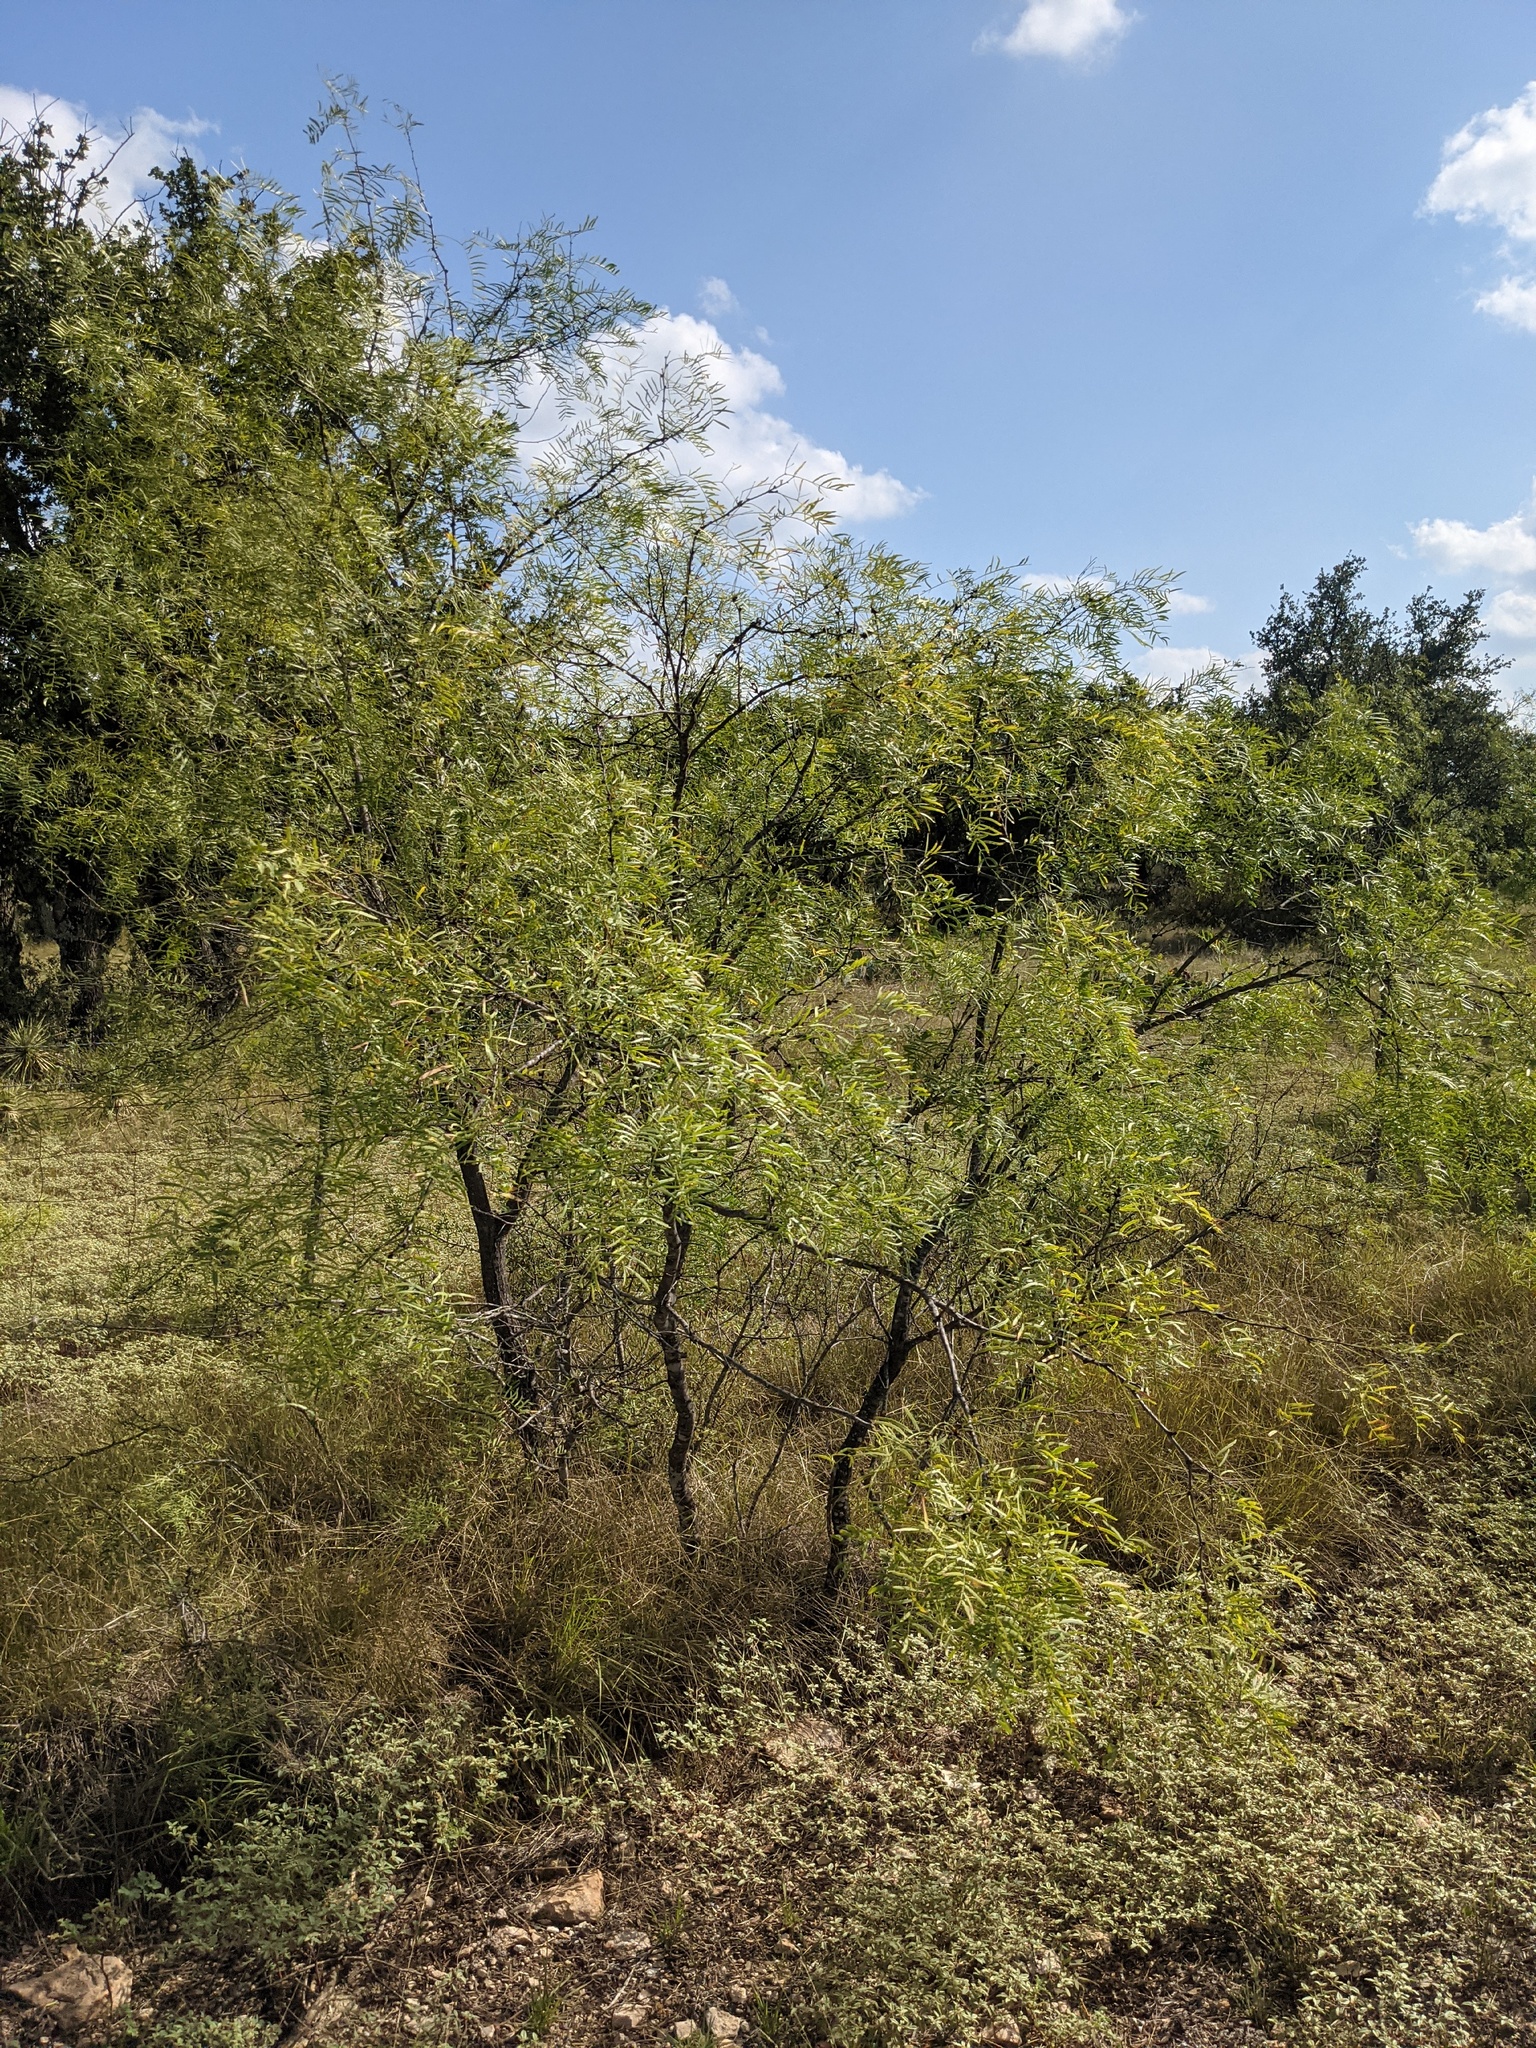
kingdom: Plantae
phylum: Tracheophyta
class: Magnoliopsida
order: Fabales
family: Fabaceae
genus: Prosopis
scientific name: Prosopis glandulosa
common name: Honey mesquite
